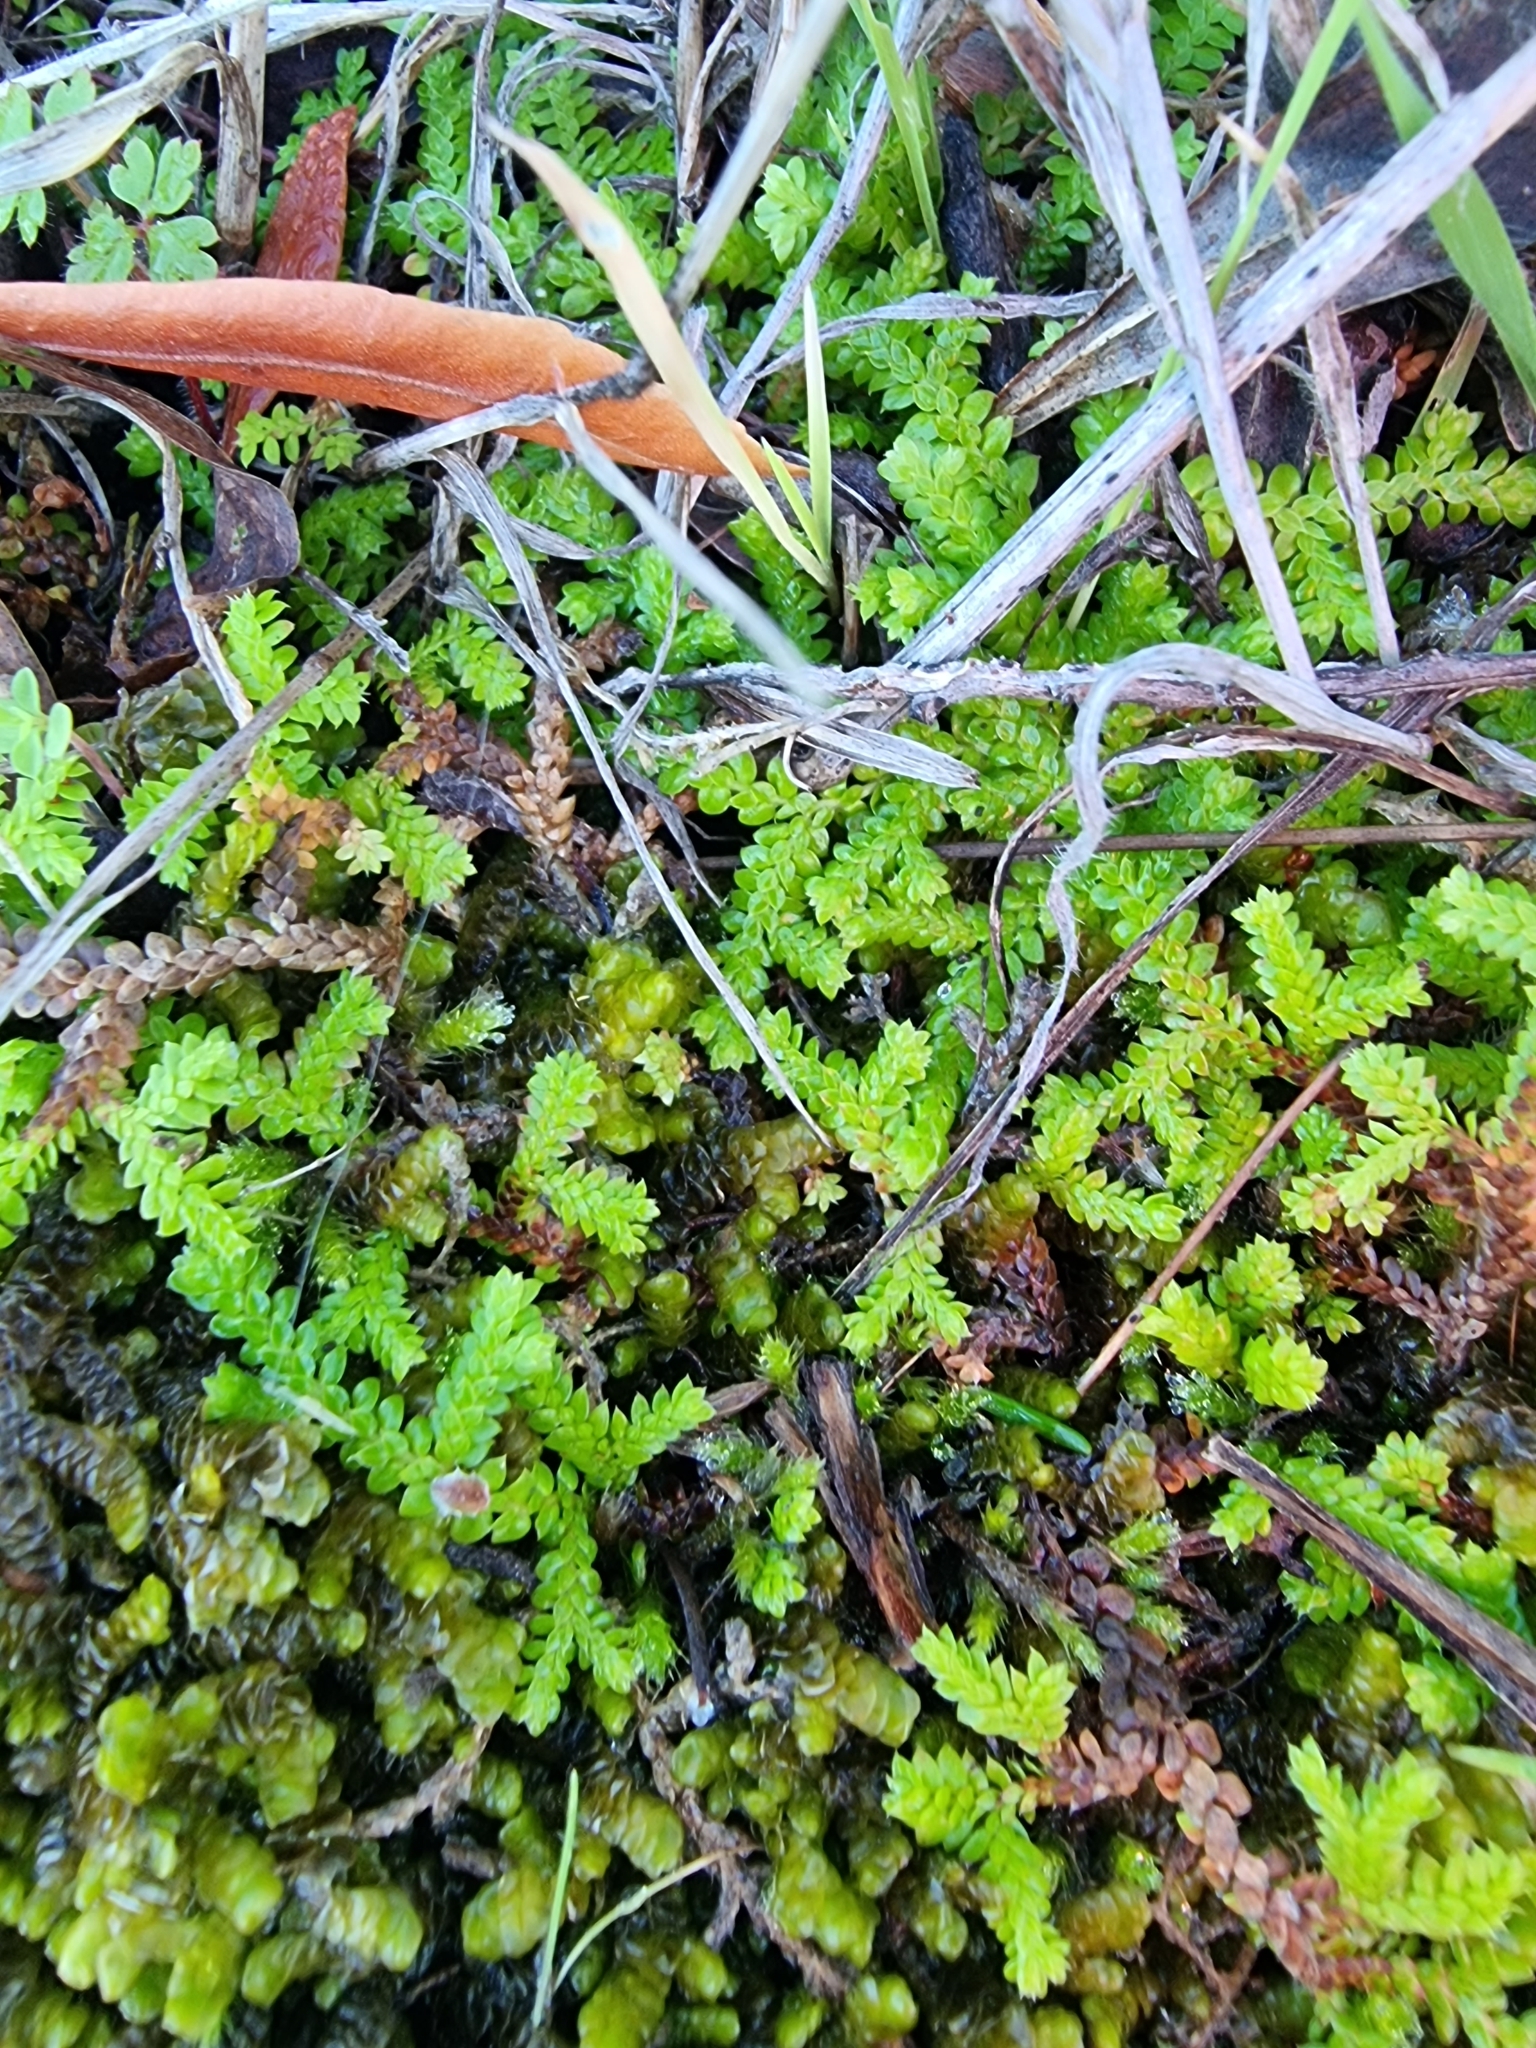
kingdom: Plantae
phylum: Tracheophyta
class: Lycopodiopsida
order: Selaginellales
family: Selaginellaceae
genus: Selaginella
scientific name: Selaginella denticulata
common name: Toothed-leaved clubmoss
